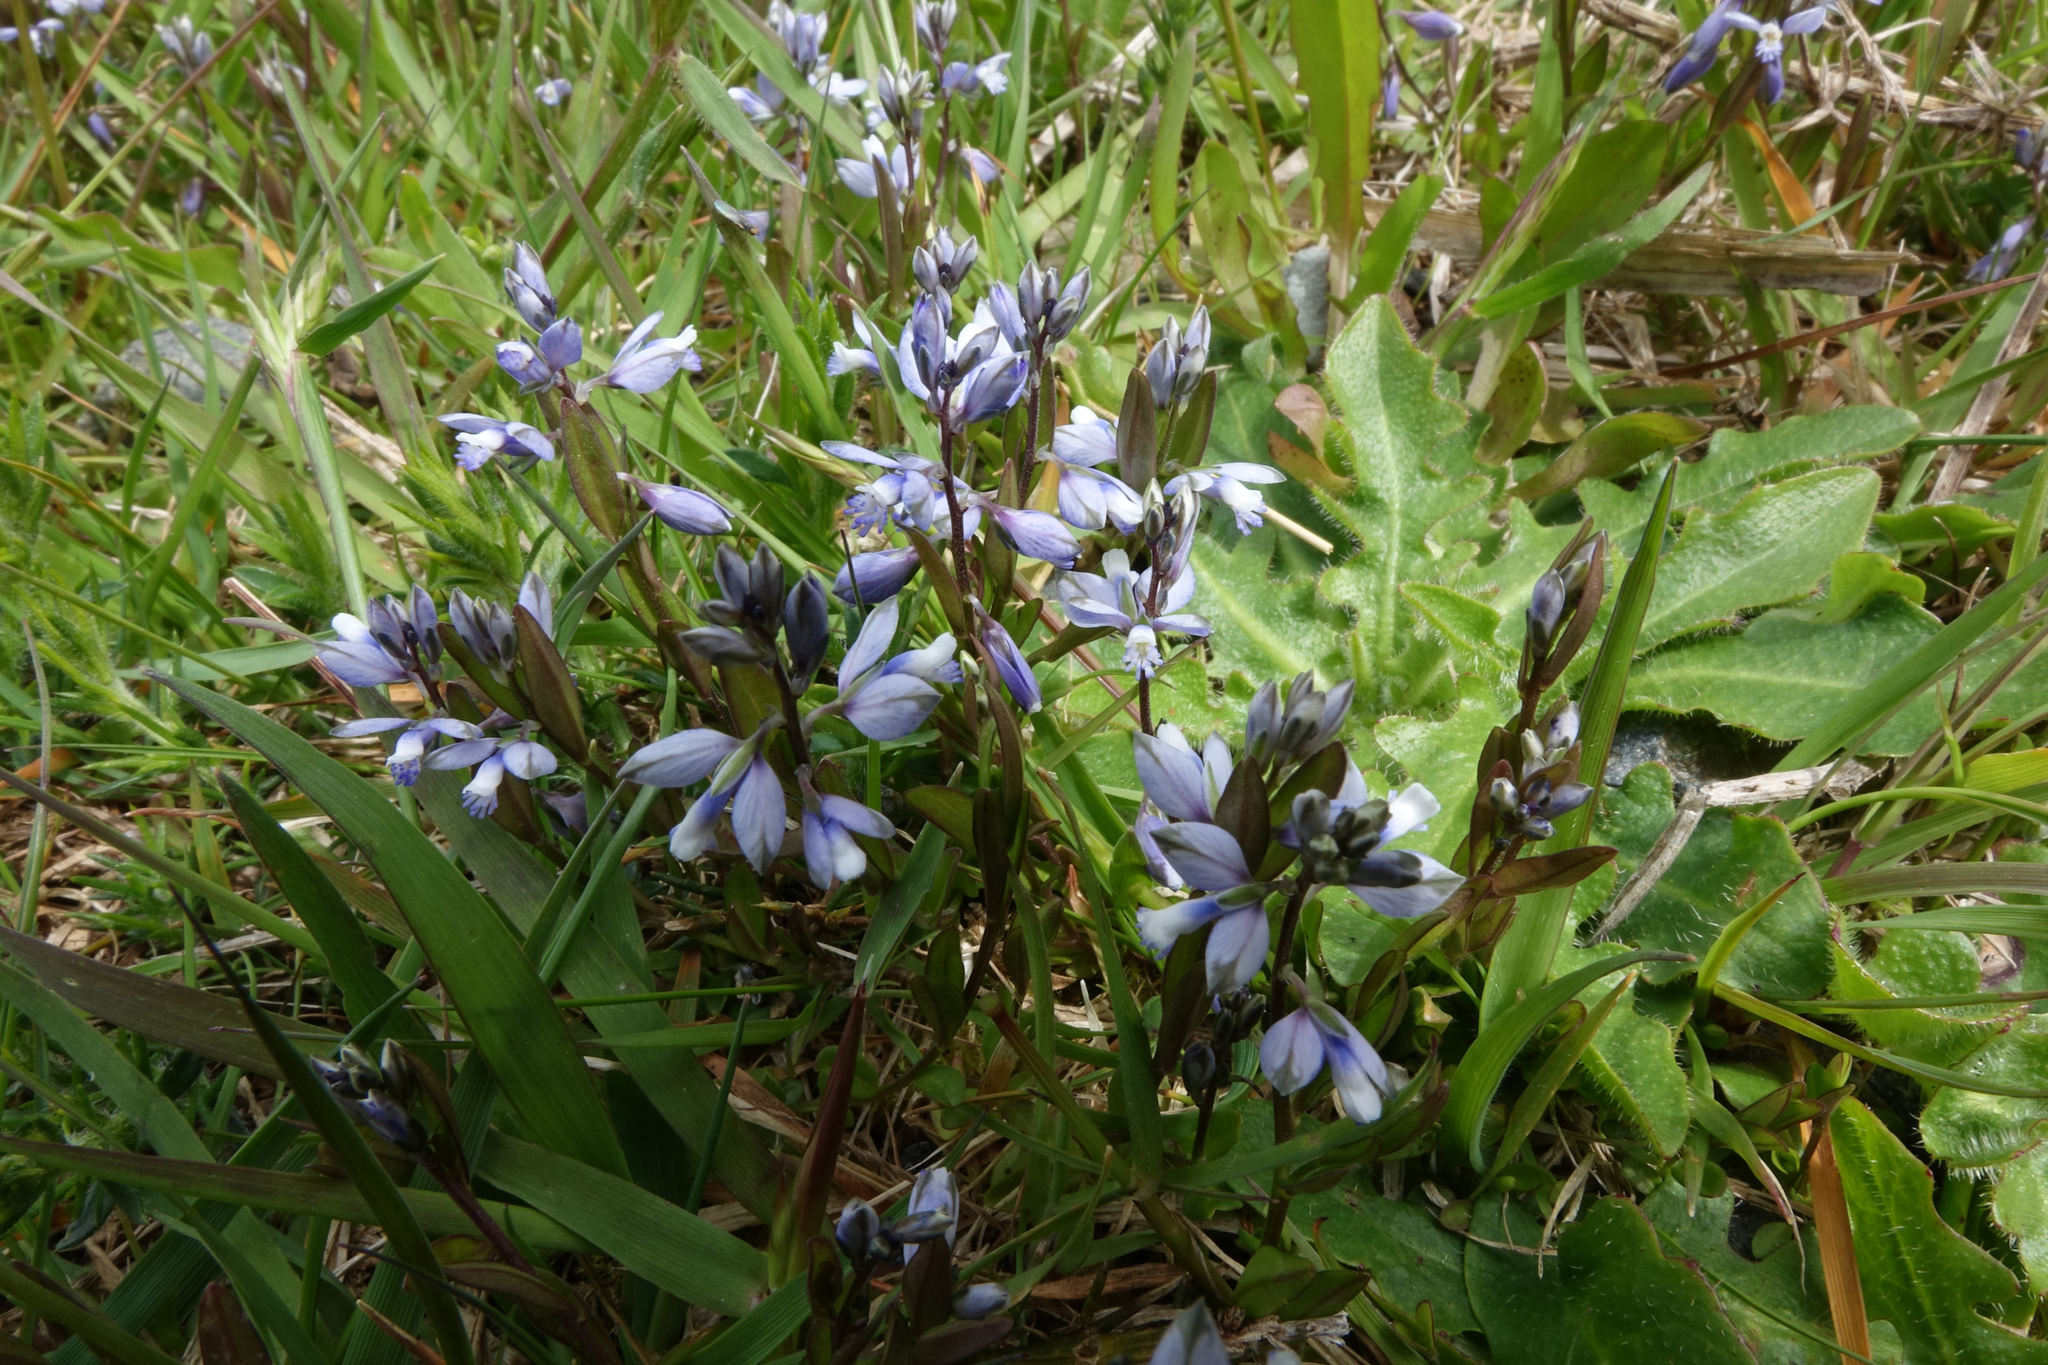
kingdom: Plantae
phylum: Tracheophyta
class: Magnoliopsida
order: Fabales
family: Polygalaceae
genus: Polygala
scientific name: Polygala serpyllifolia
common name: Heath milkwort
